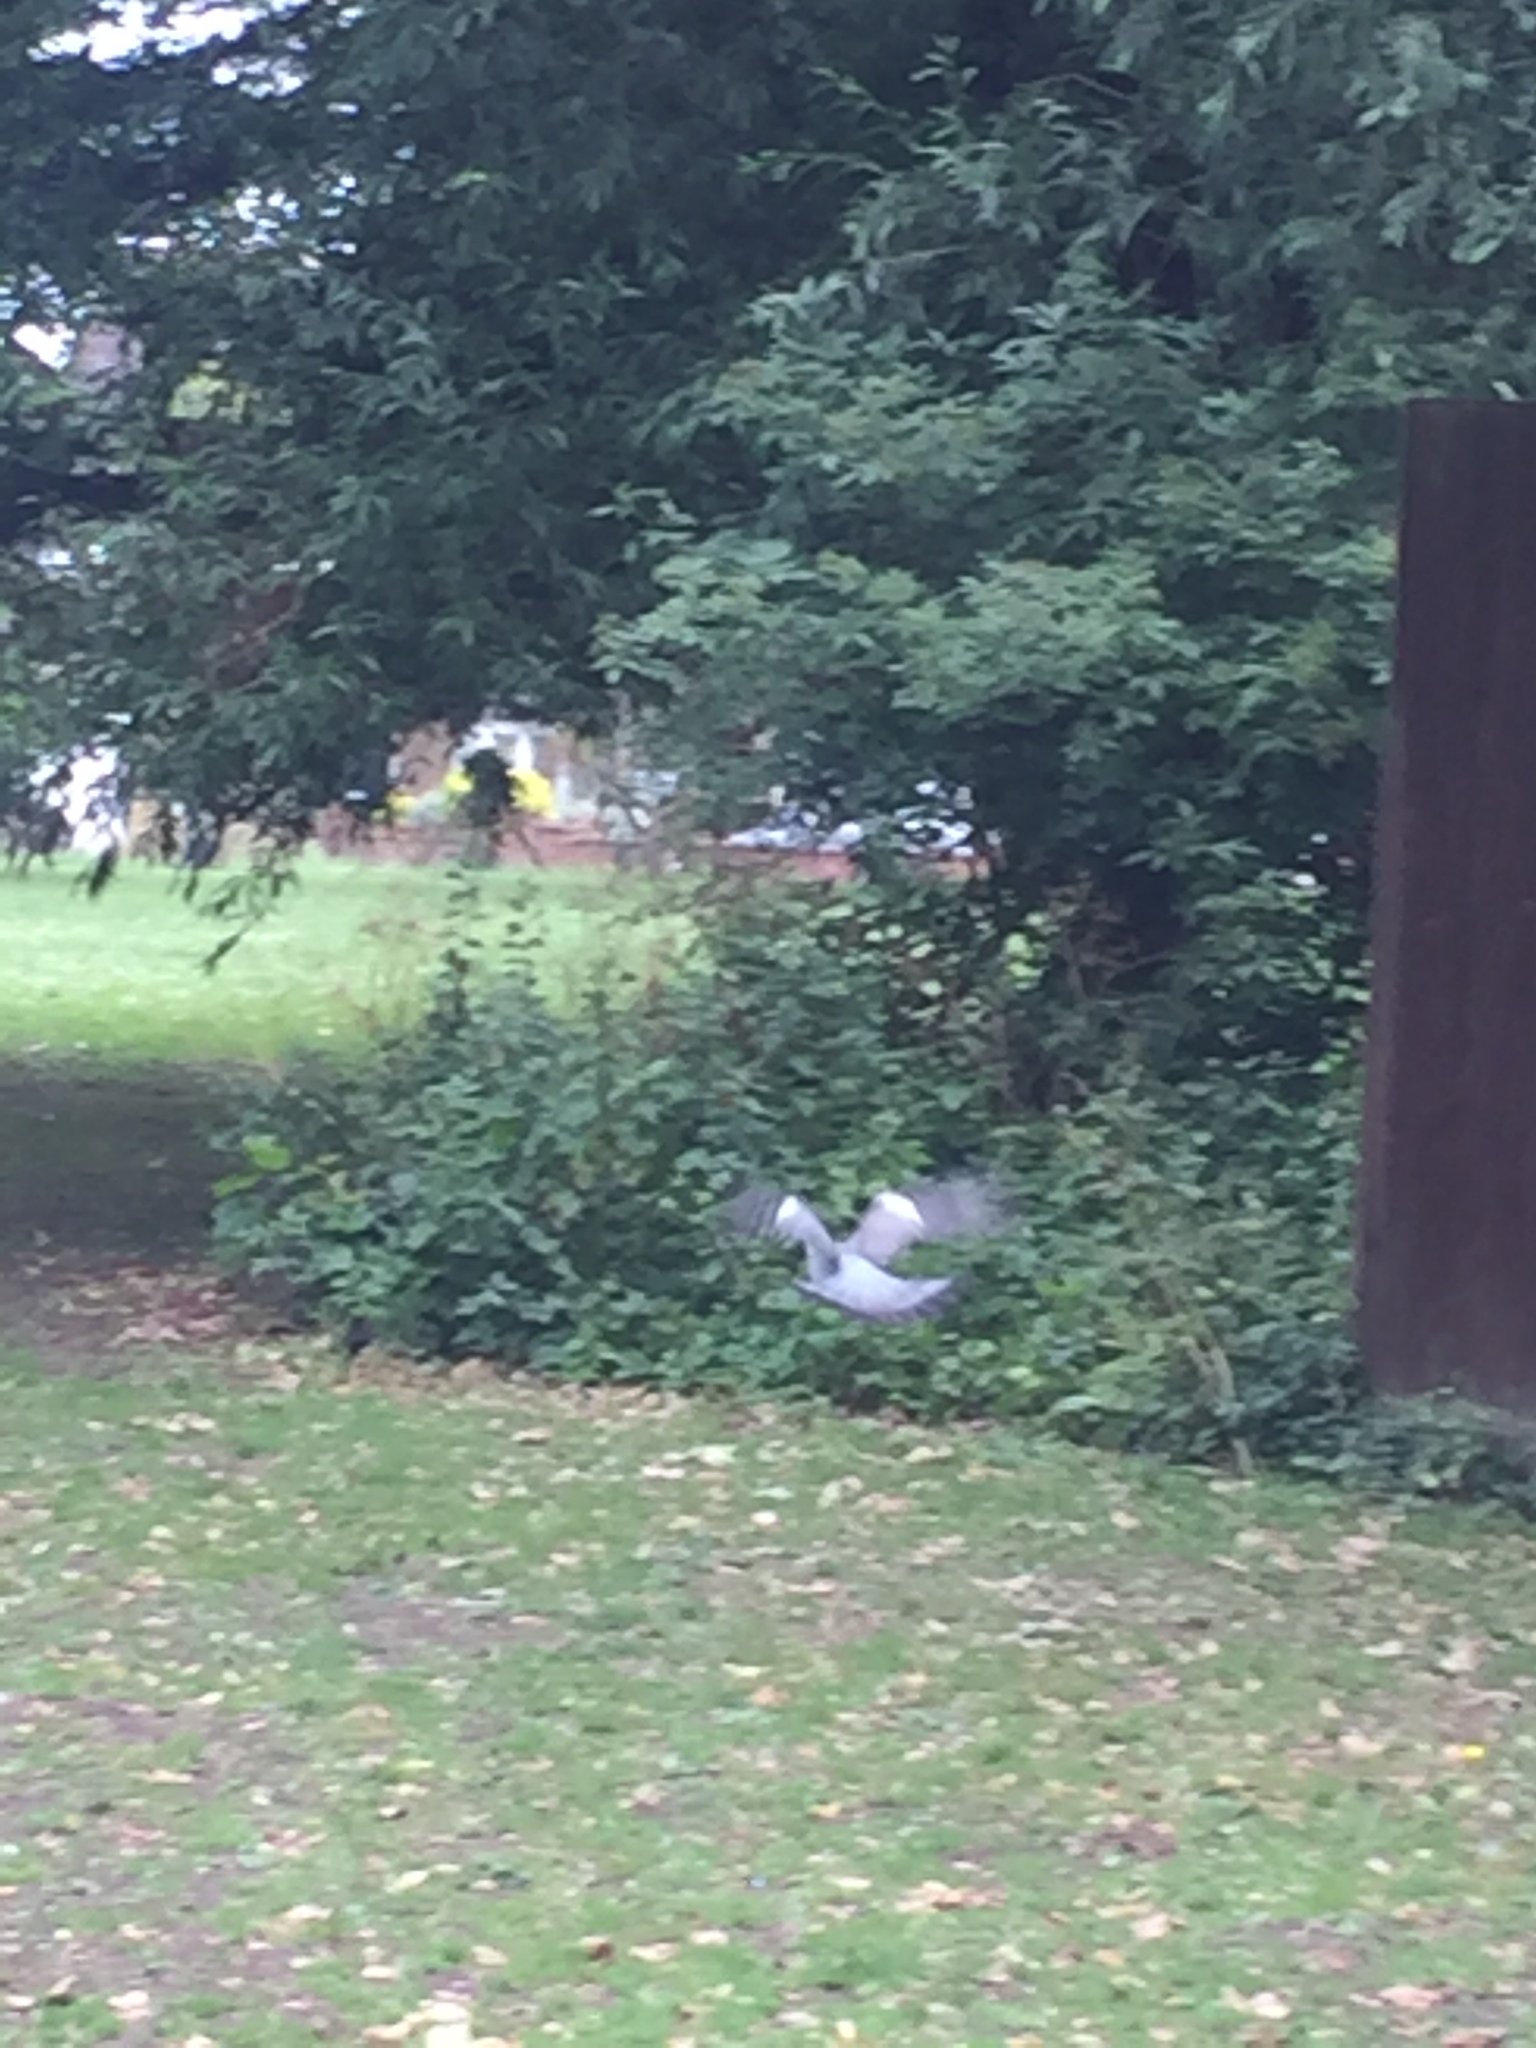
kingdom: Animalia
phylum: Chordata
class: Aves
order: Columbiformes
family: Columbidae
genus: Columba
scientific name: Columba palumbus
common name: Common wood pigeon
